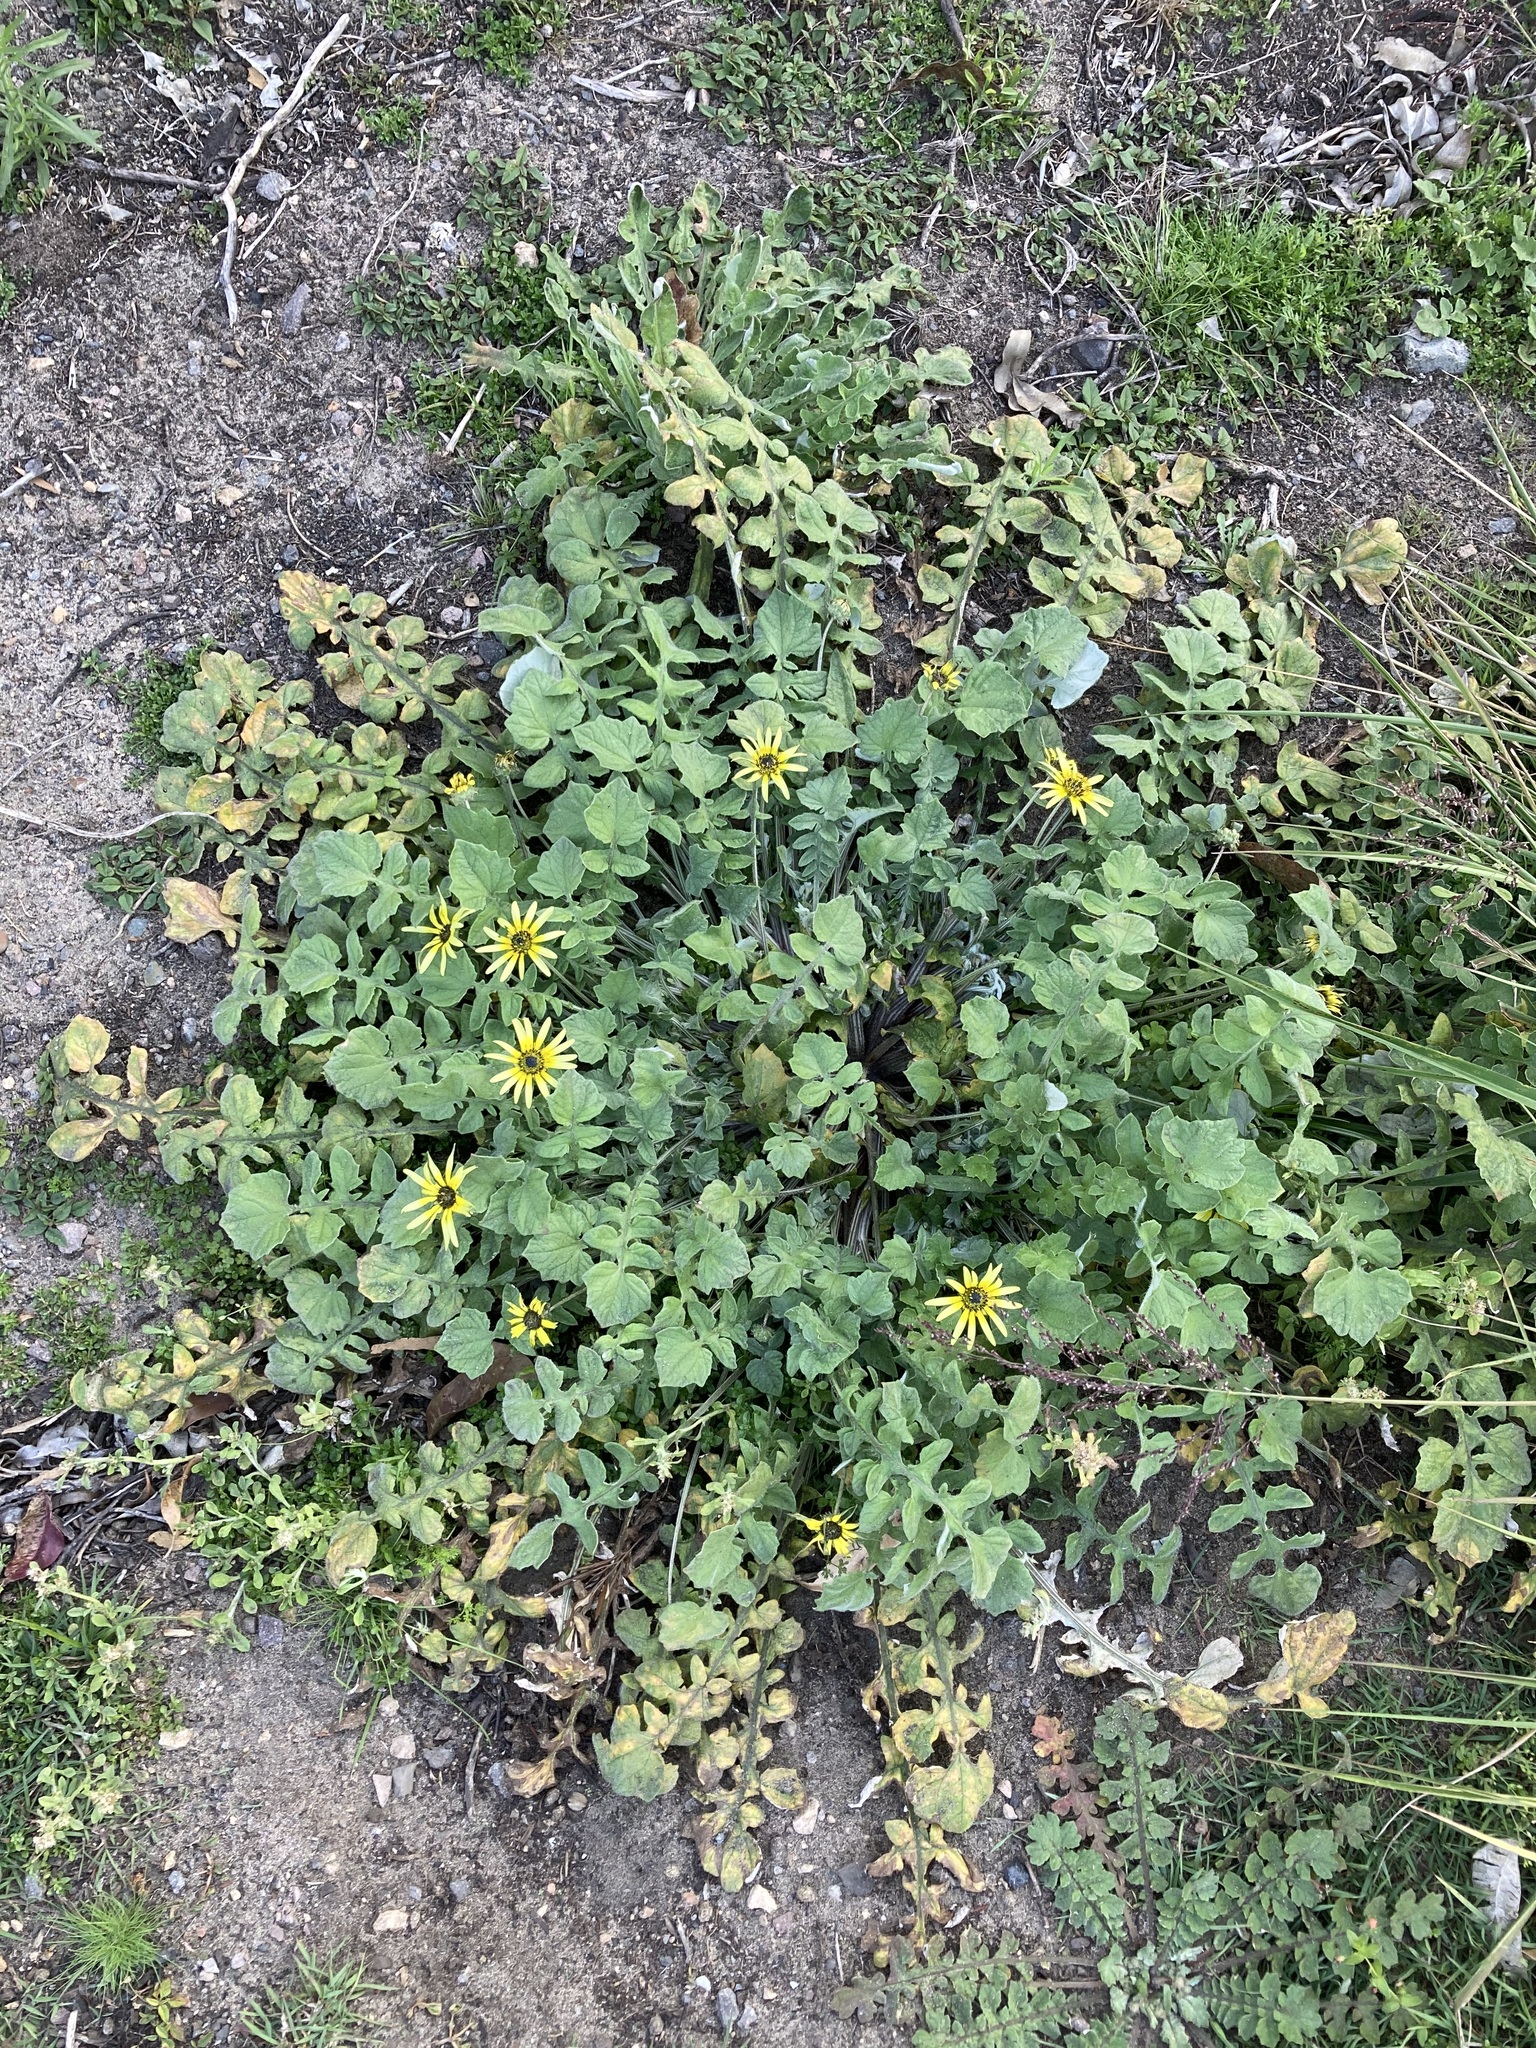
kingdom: Plantae
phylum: Tracheophyta
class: Magnoliopsida
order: Asterales
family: Asteraceae
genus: Arctotheca
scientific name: Arctotheca calendula
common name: Capeweed
